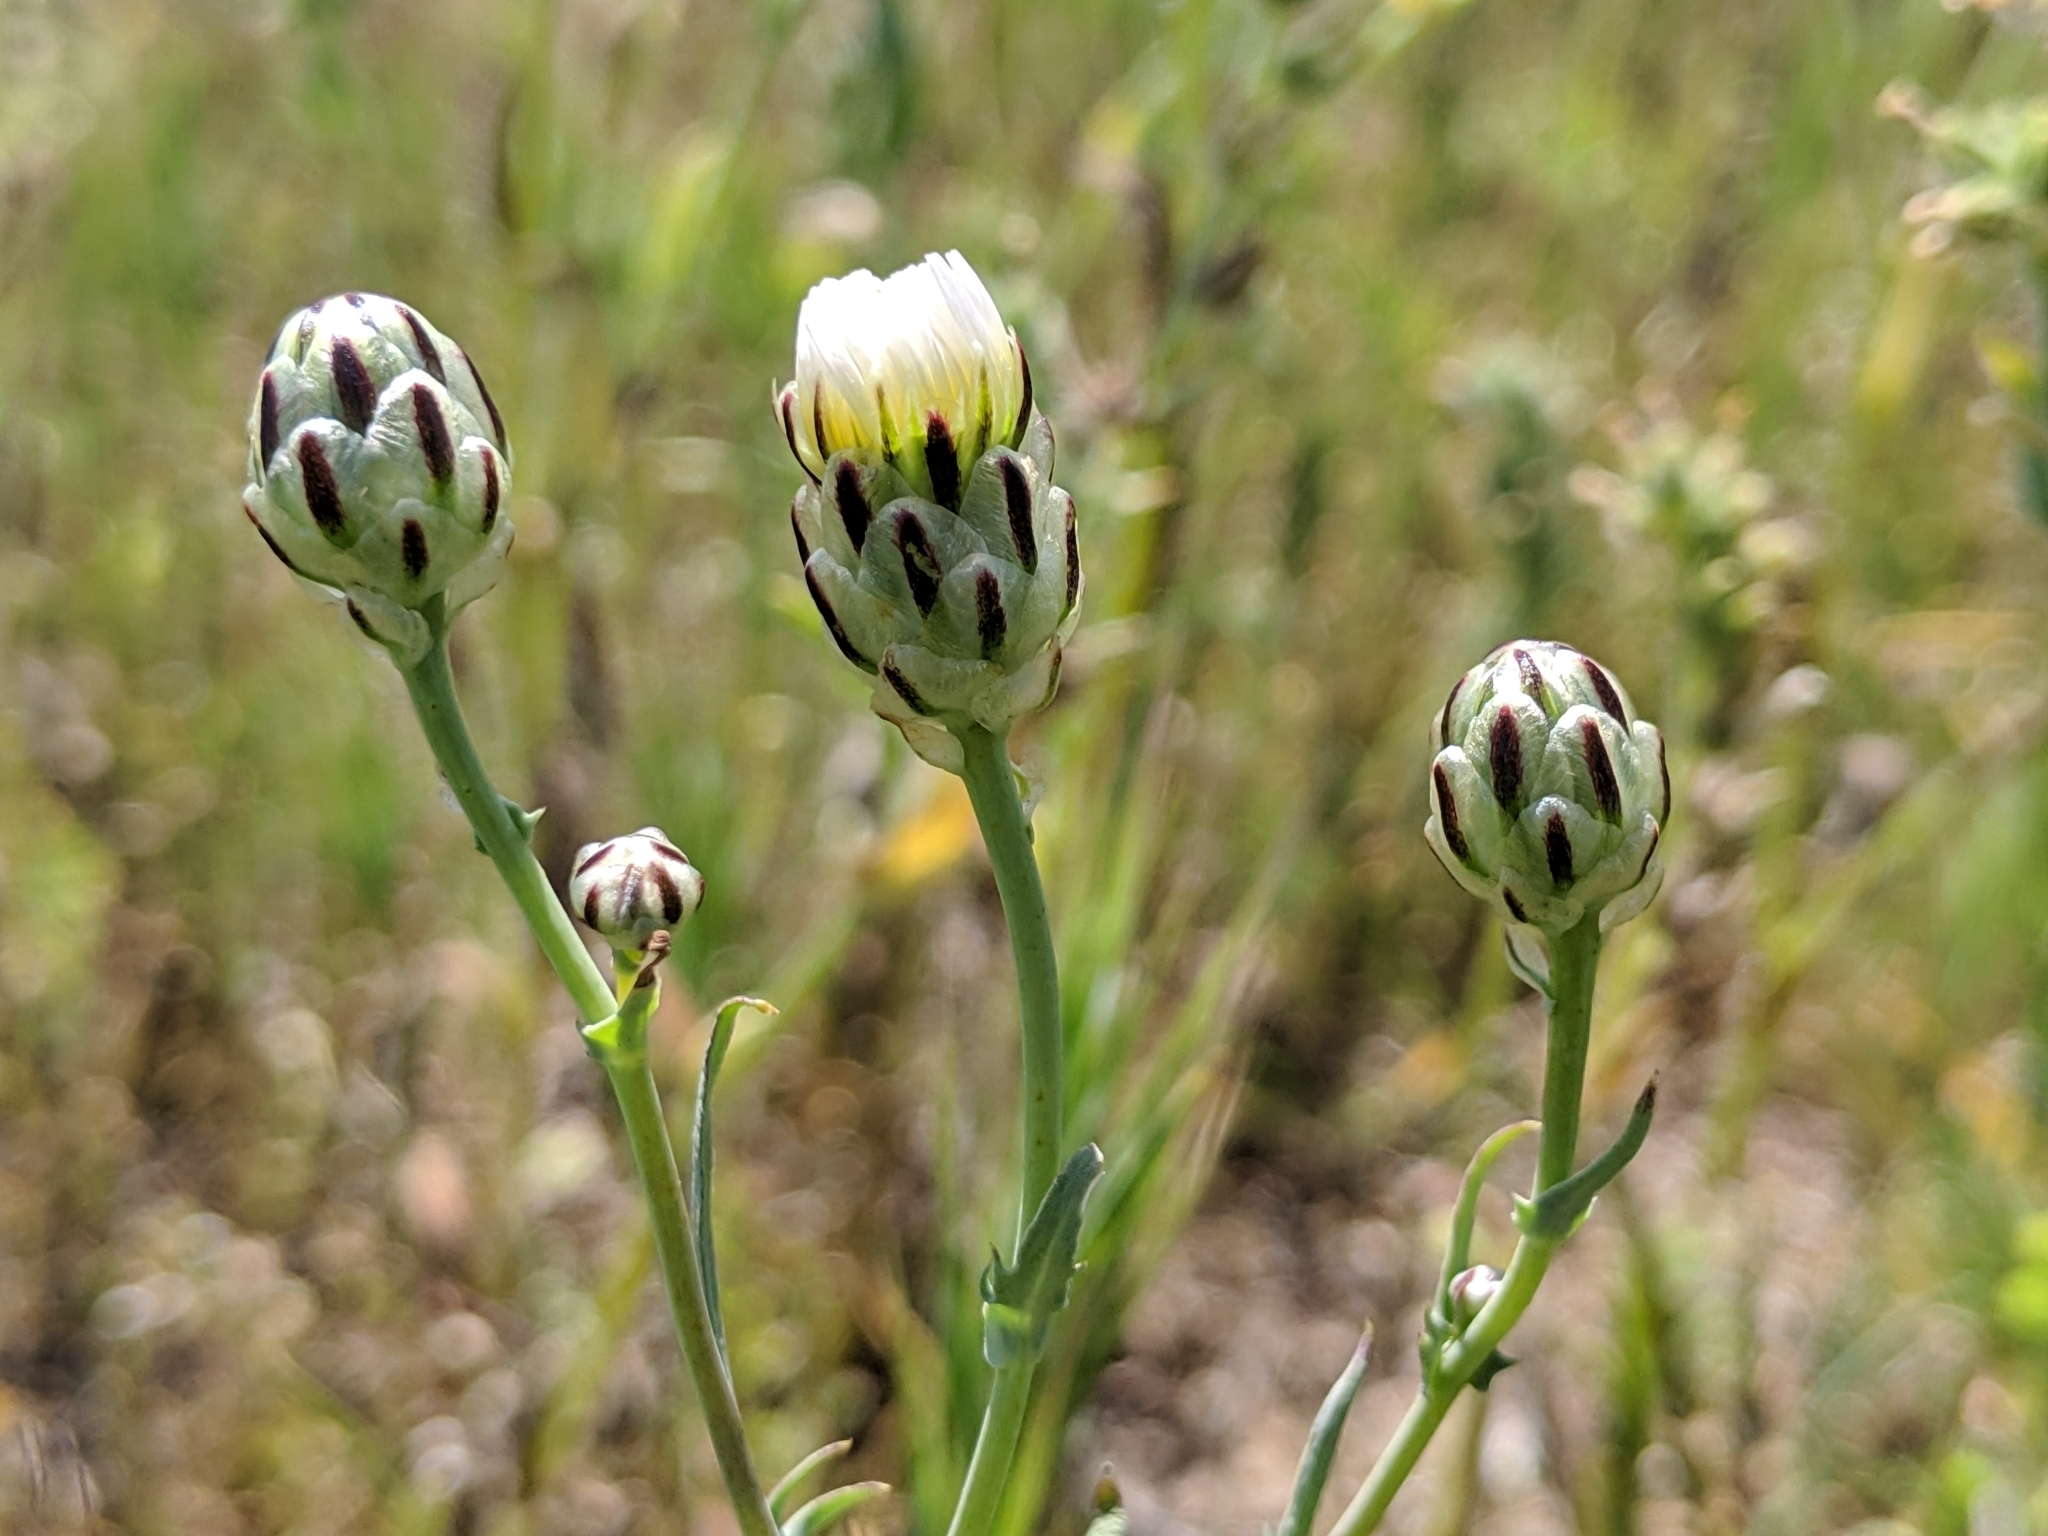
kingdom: Plantae
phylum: Tracheophyta
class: Magnoliopsida
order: Asterales
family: Asteraceae
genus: Malacothrix
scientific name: Malacothrix coulteri
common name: Snake's-head
